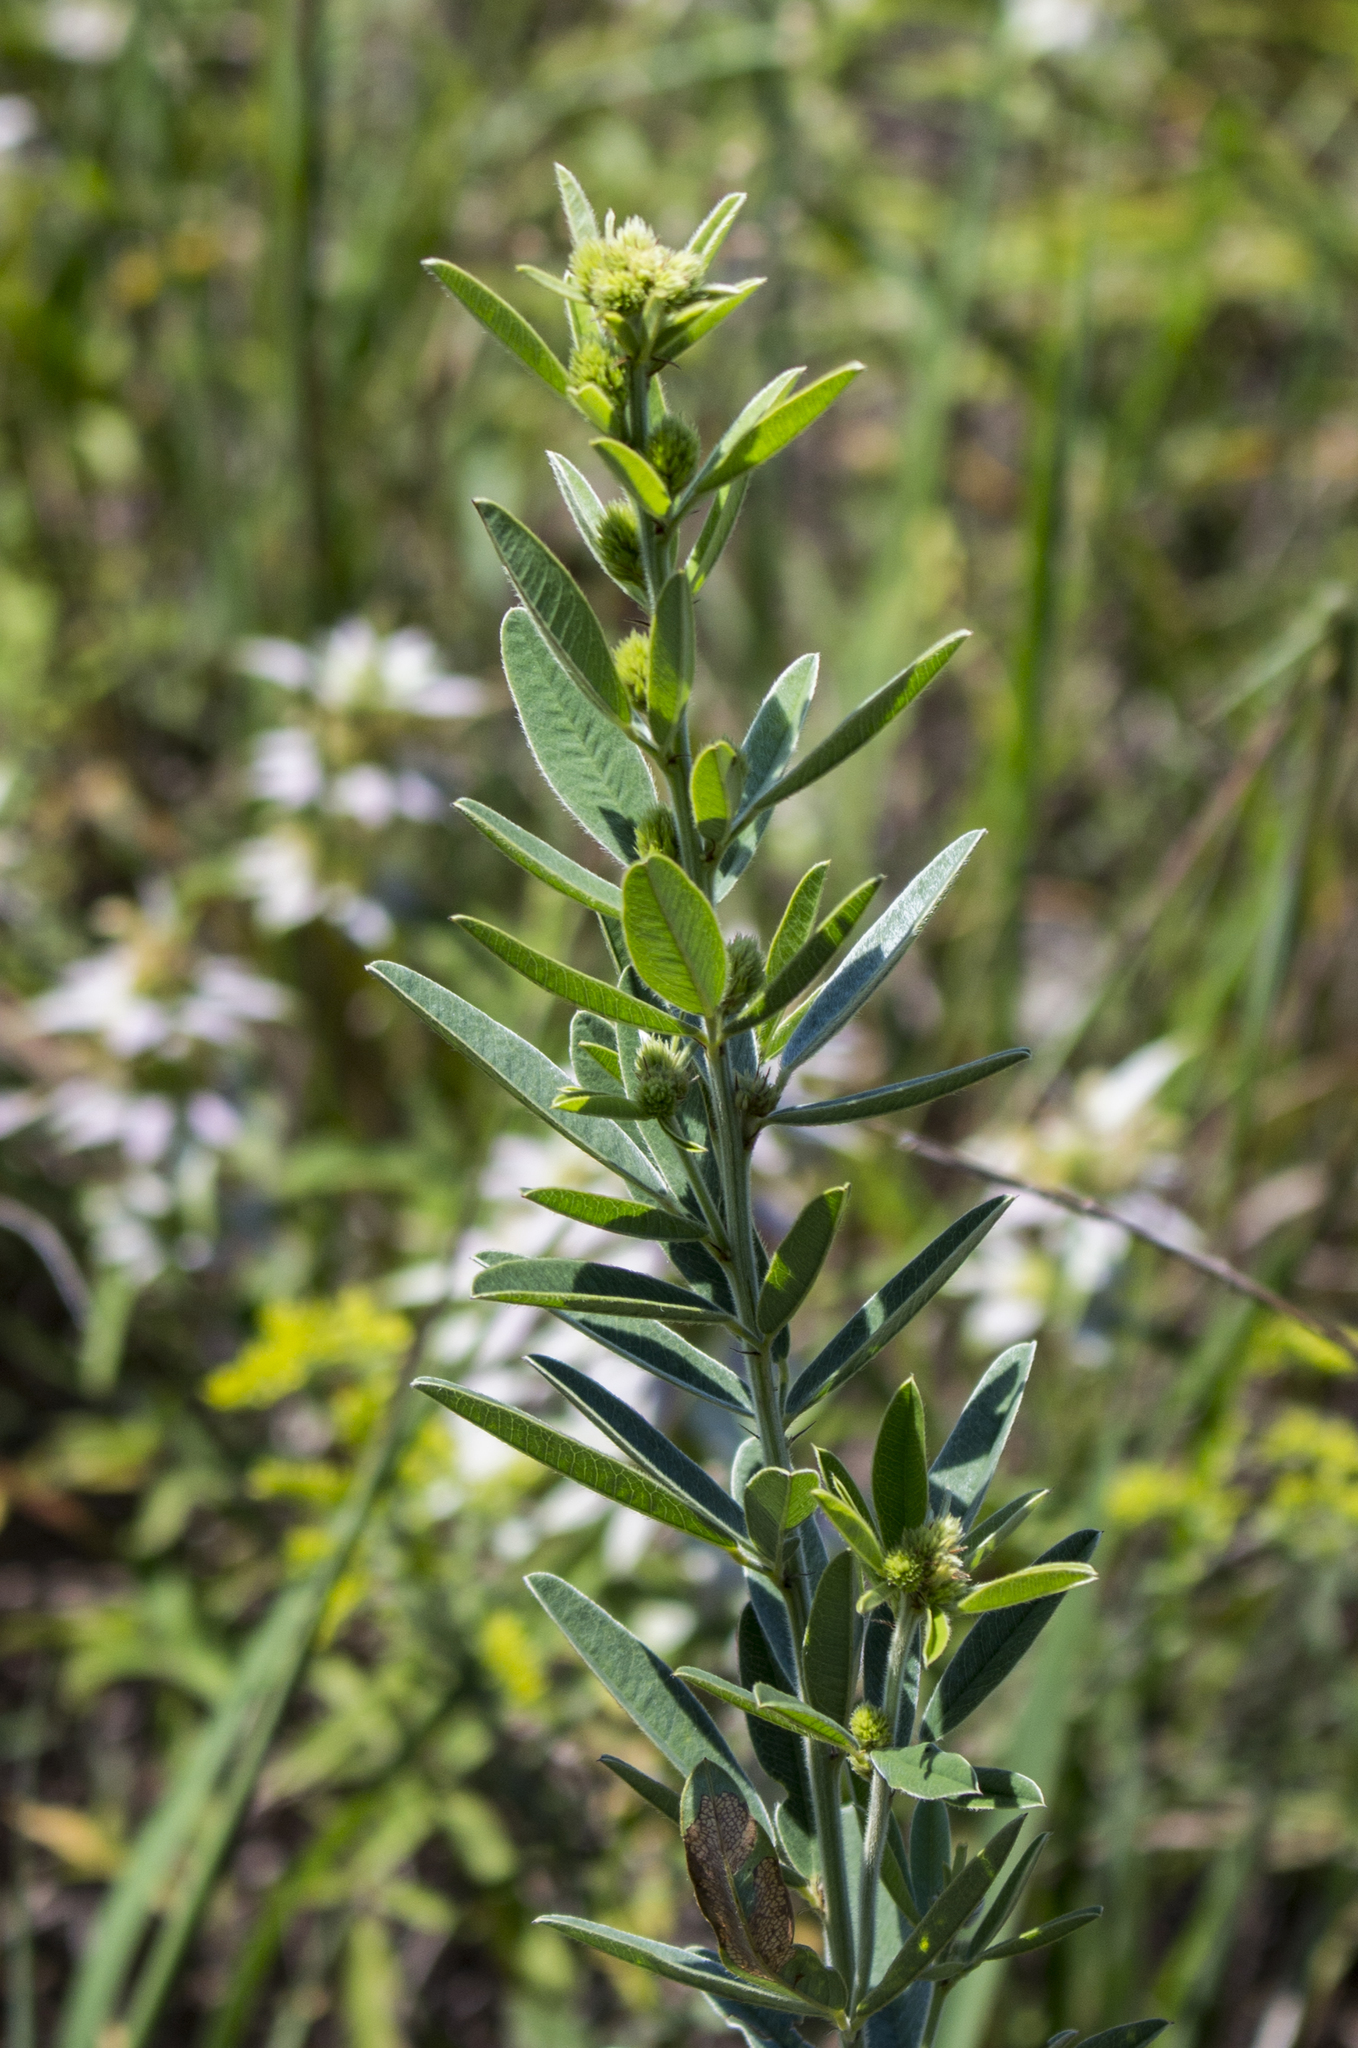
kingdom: Plantae
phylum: Tracheophyta
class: Magnoliopsida
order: Fabales
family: Fabaceae
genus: Lespedeza
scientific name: Lespedeza capitata
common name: Dusty clover
